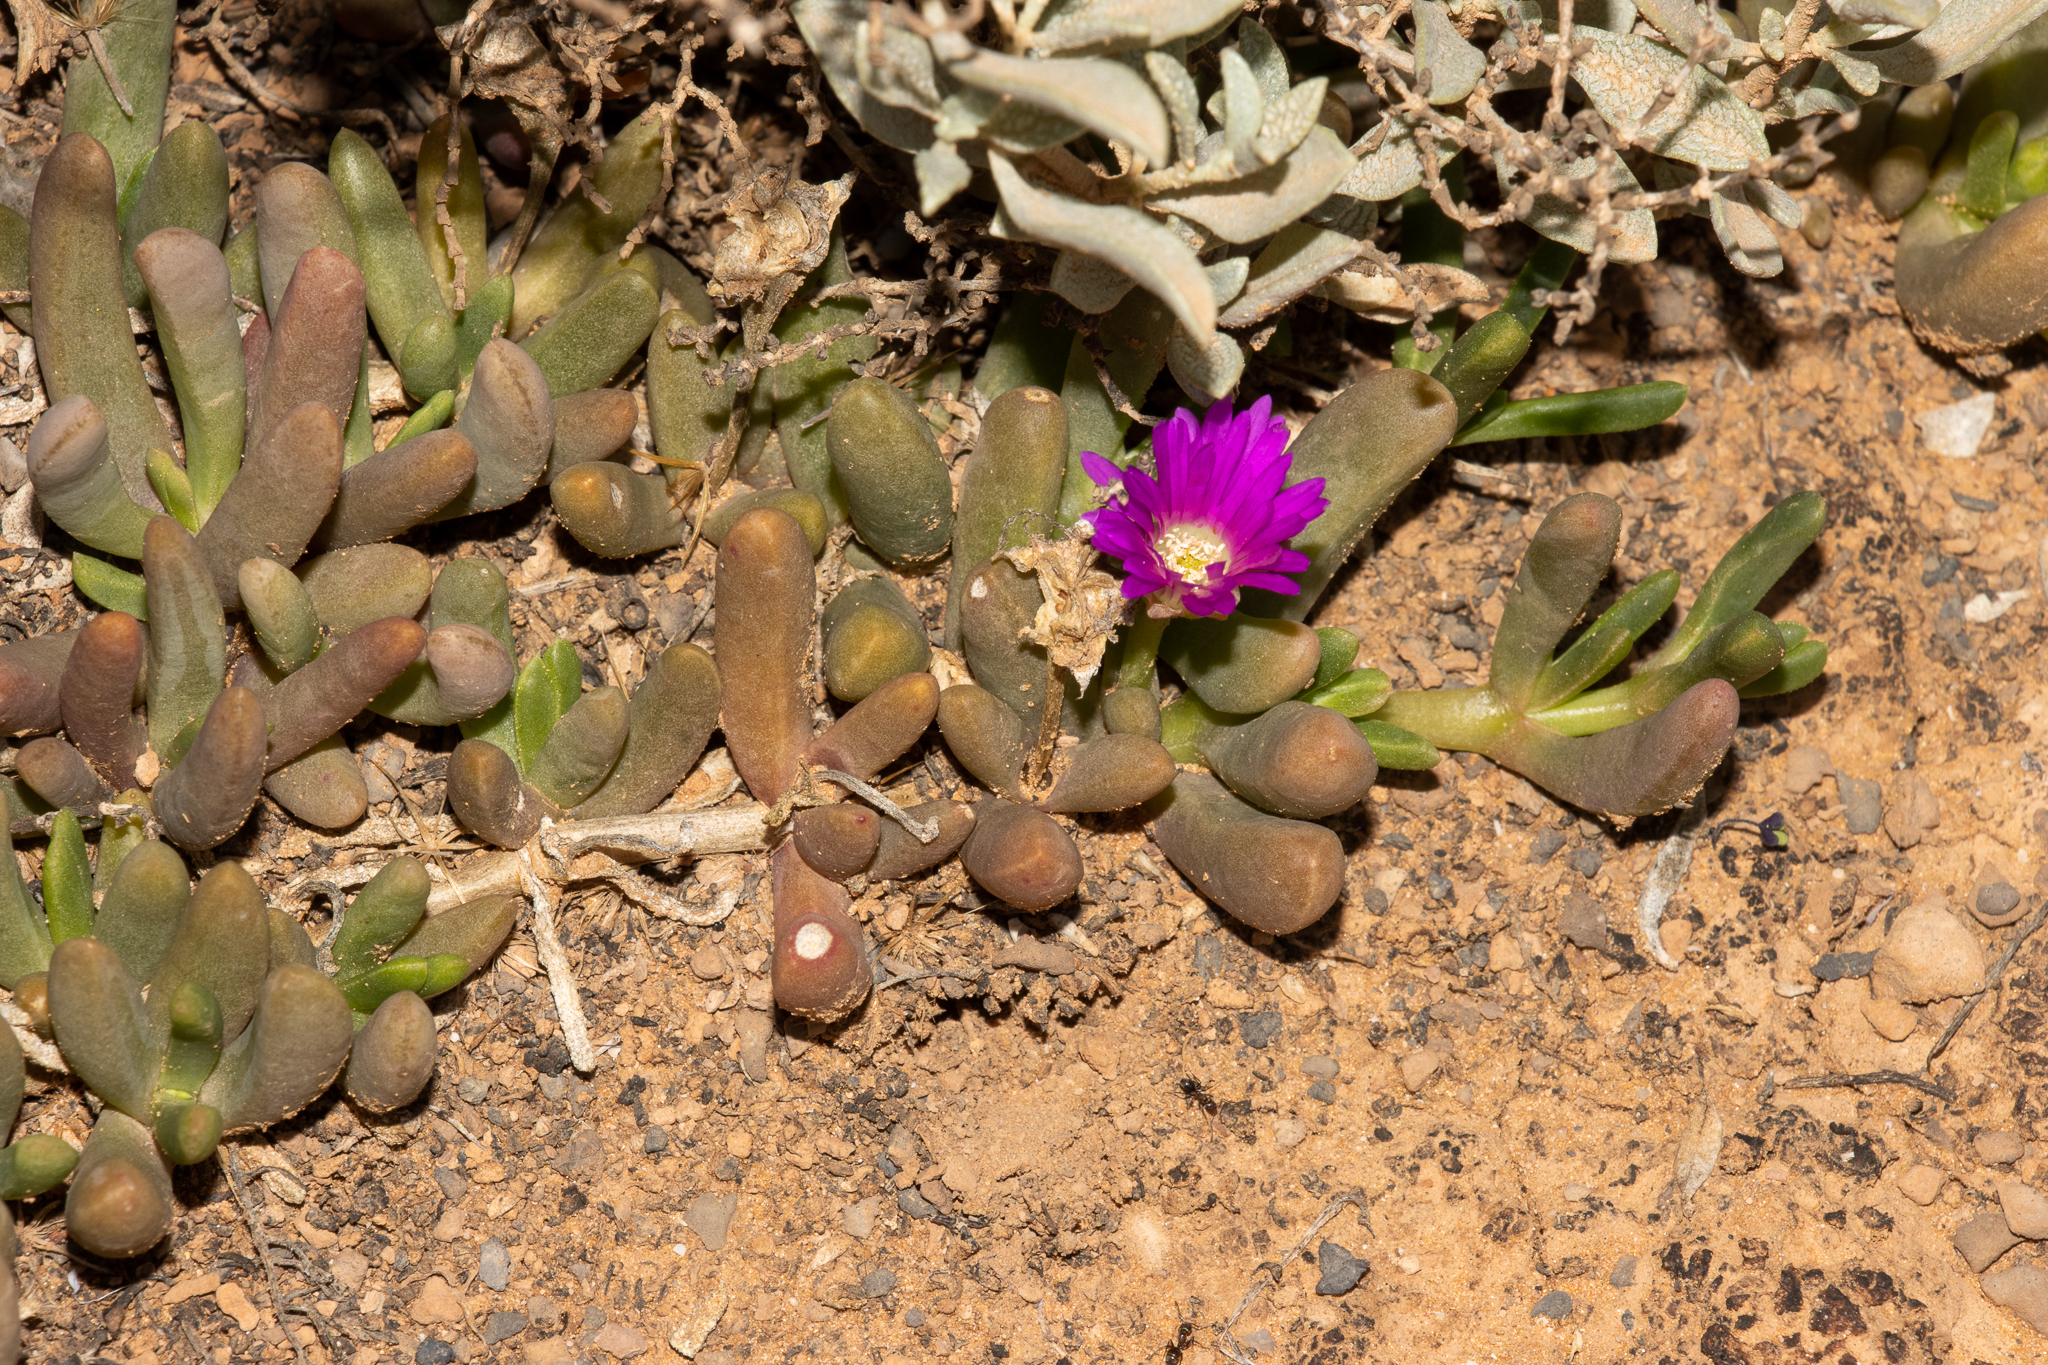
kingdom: Plantae
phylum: Tracheophyta
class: Magnoliopsida
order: Caryophyllales
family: Aizoaceae
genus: Disphyma
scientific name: Disphyma clavellatum
